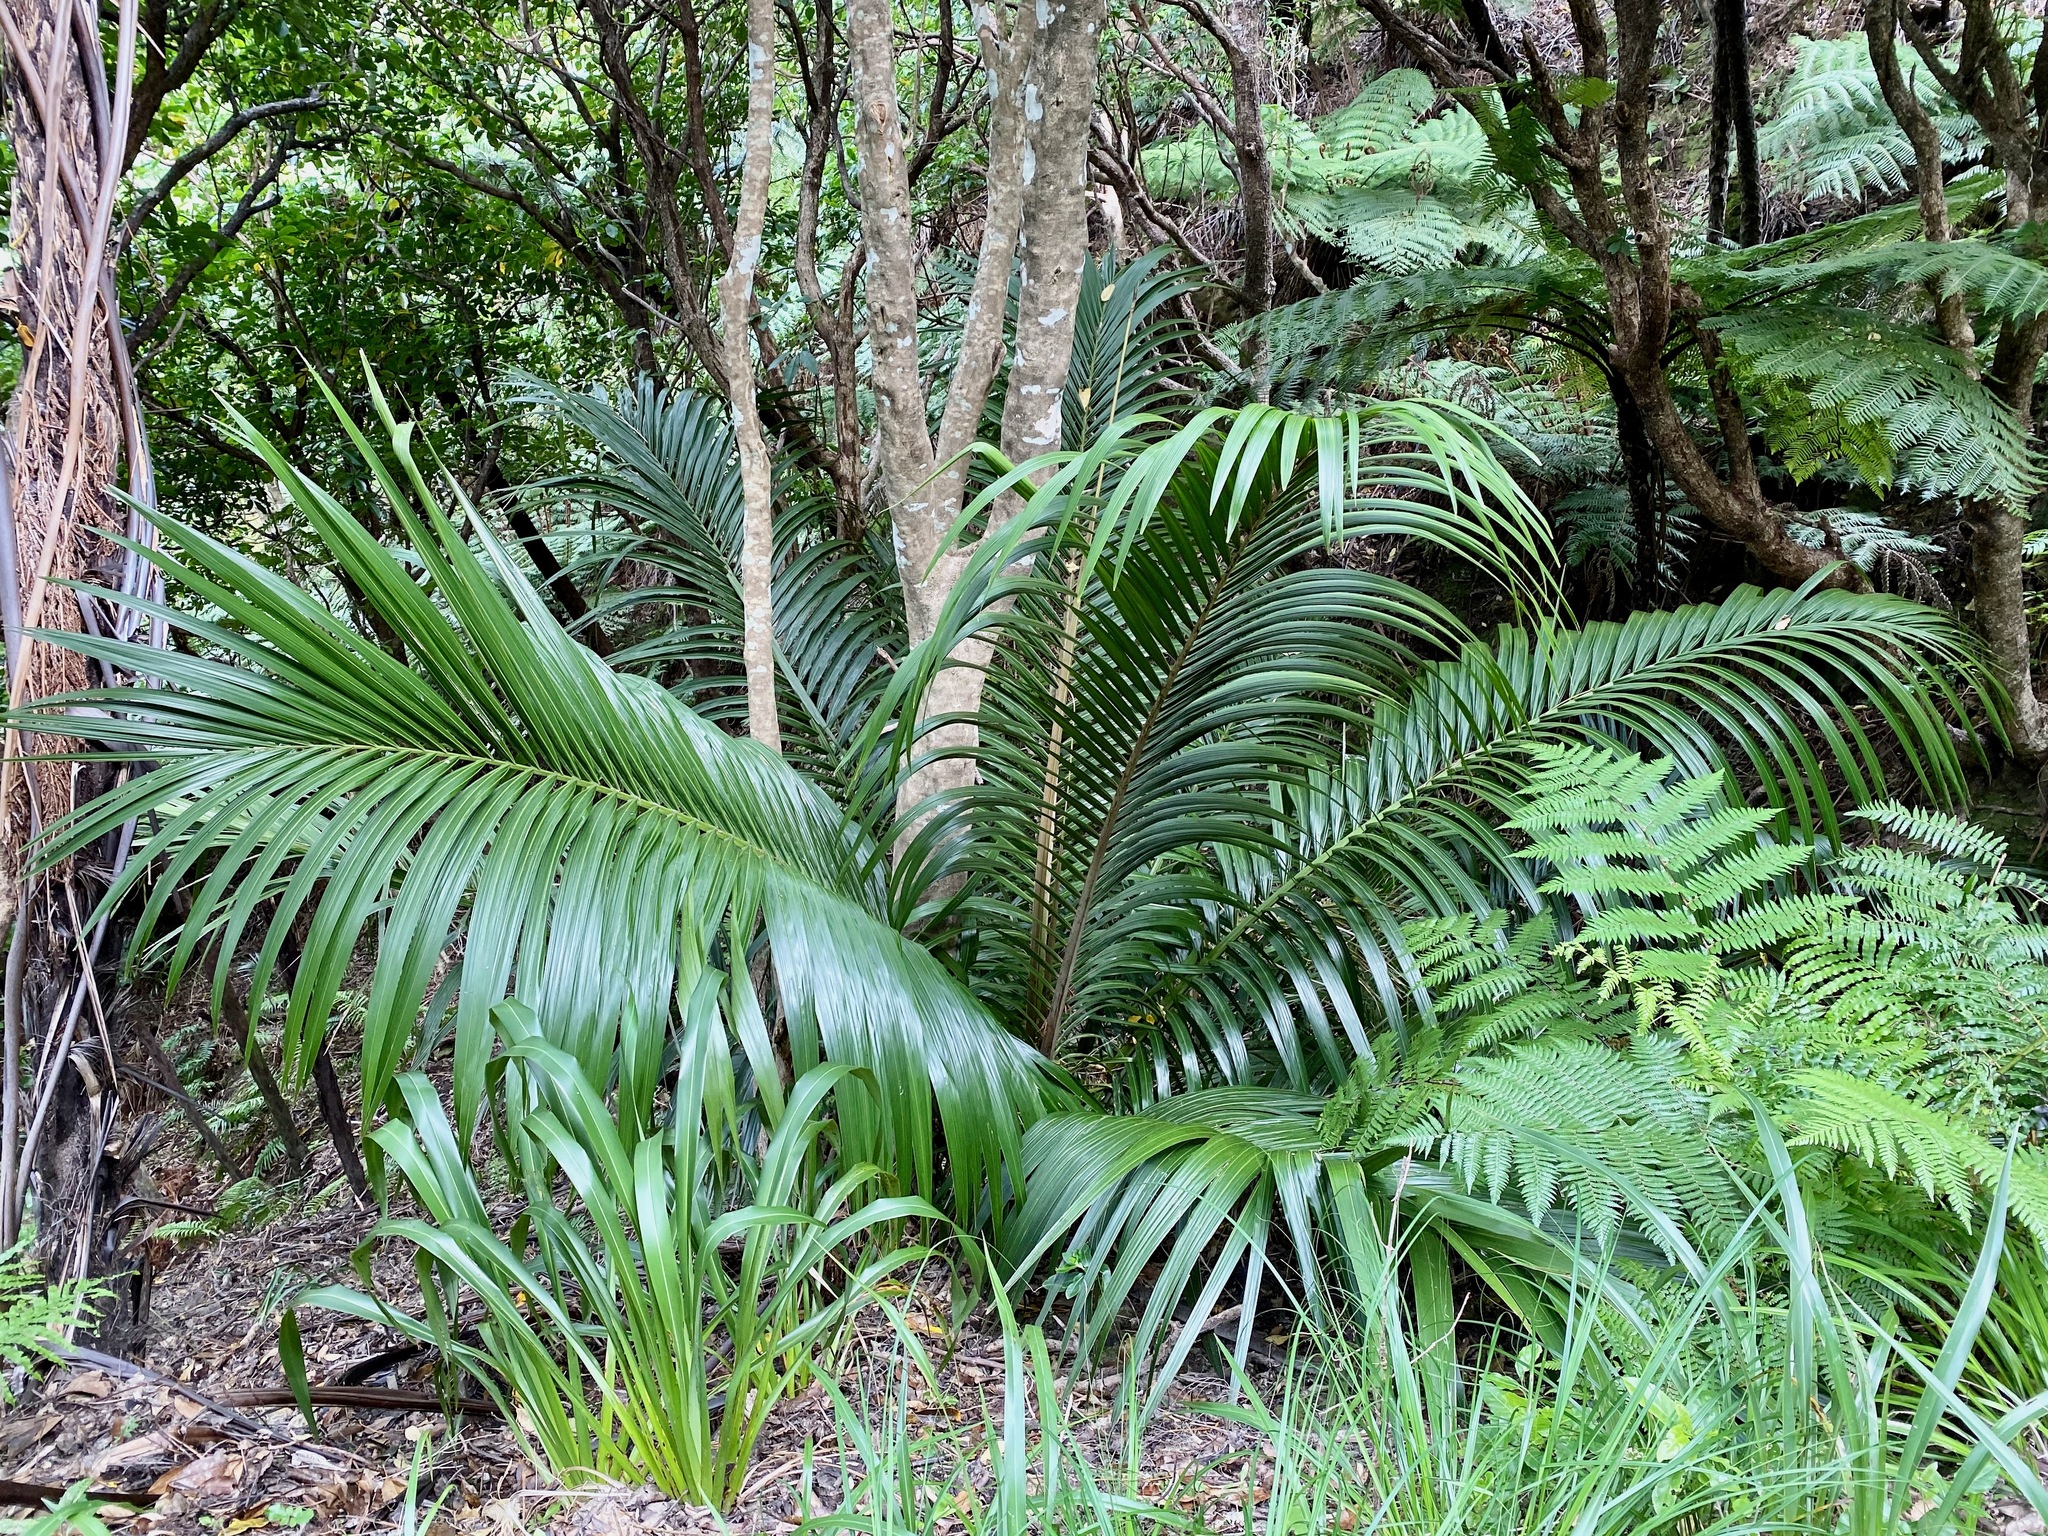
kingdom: Plantae
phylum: Tracheophyta
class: Liliopsida
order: Arecales
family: Arecaceae
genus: Rhopalostylis
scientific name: Rhopalostylis sapida
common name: Feather-duster palm
